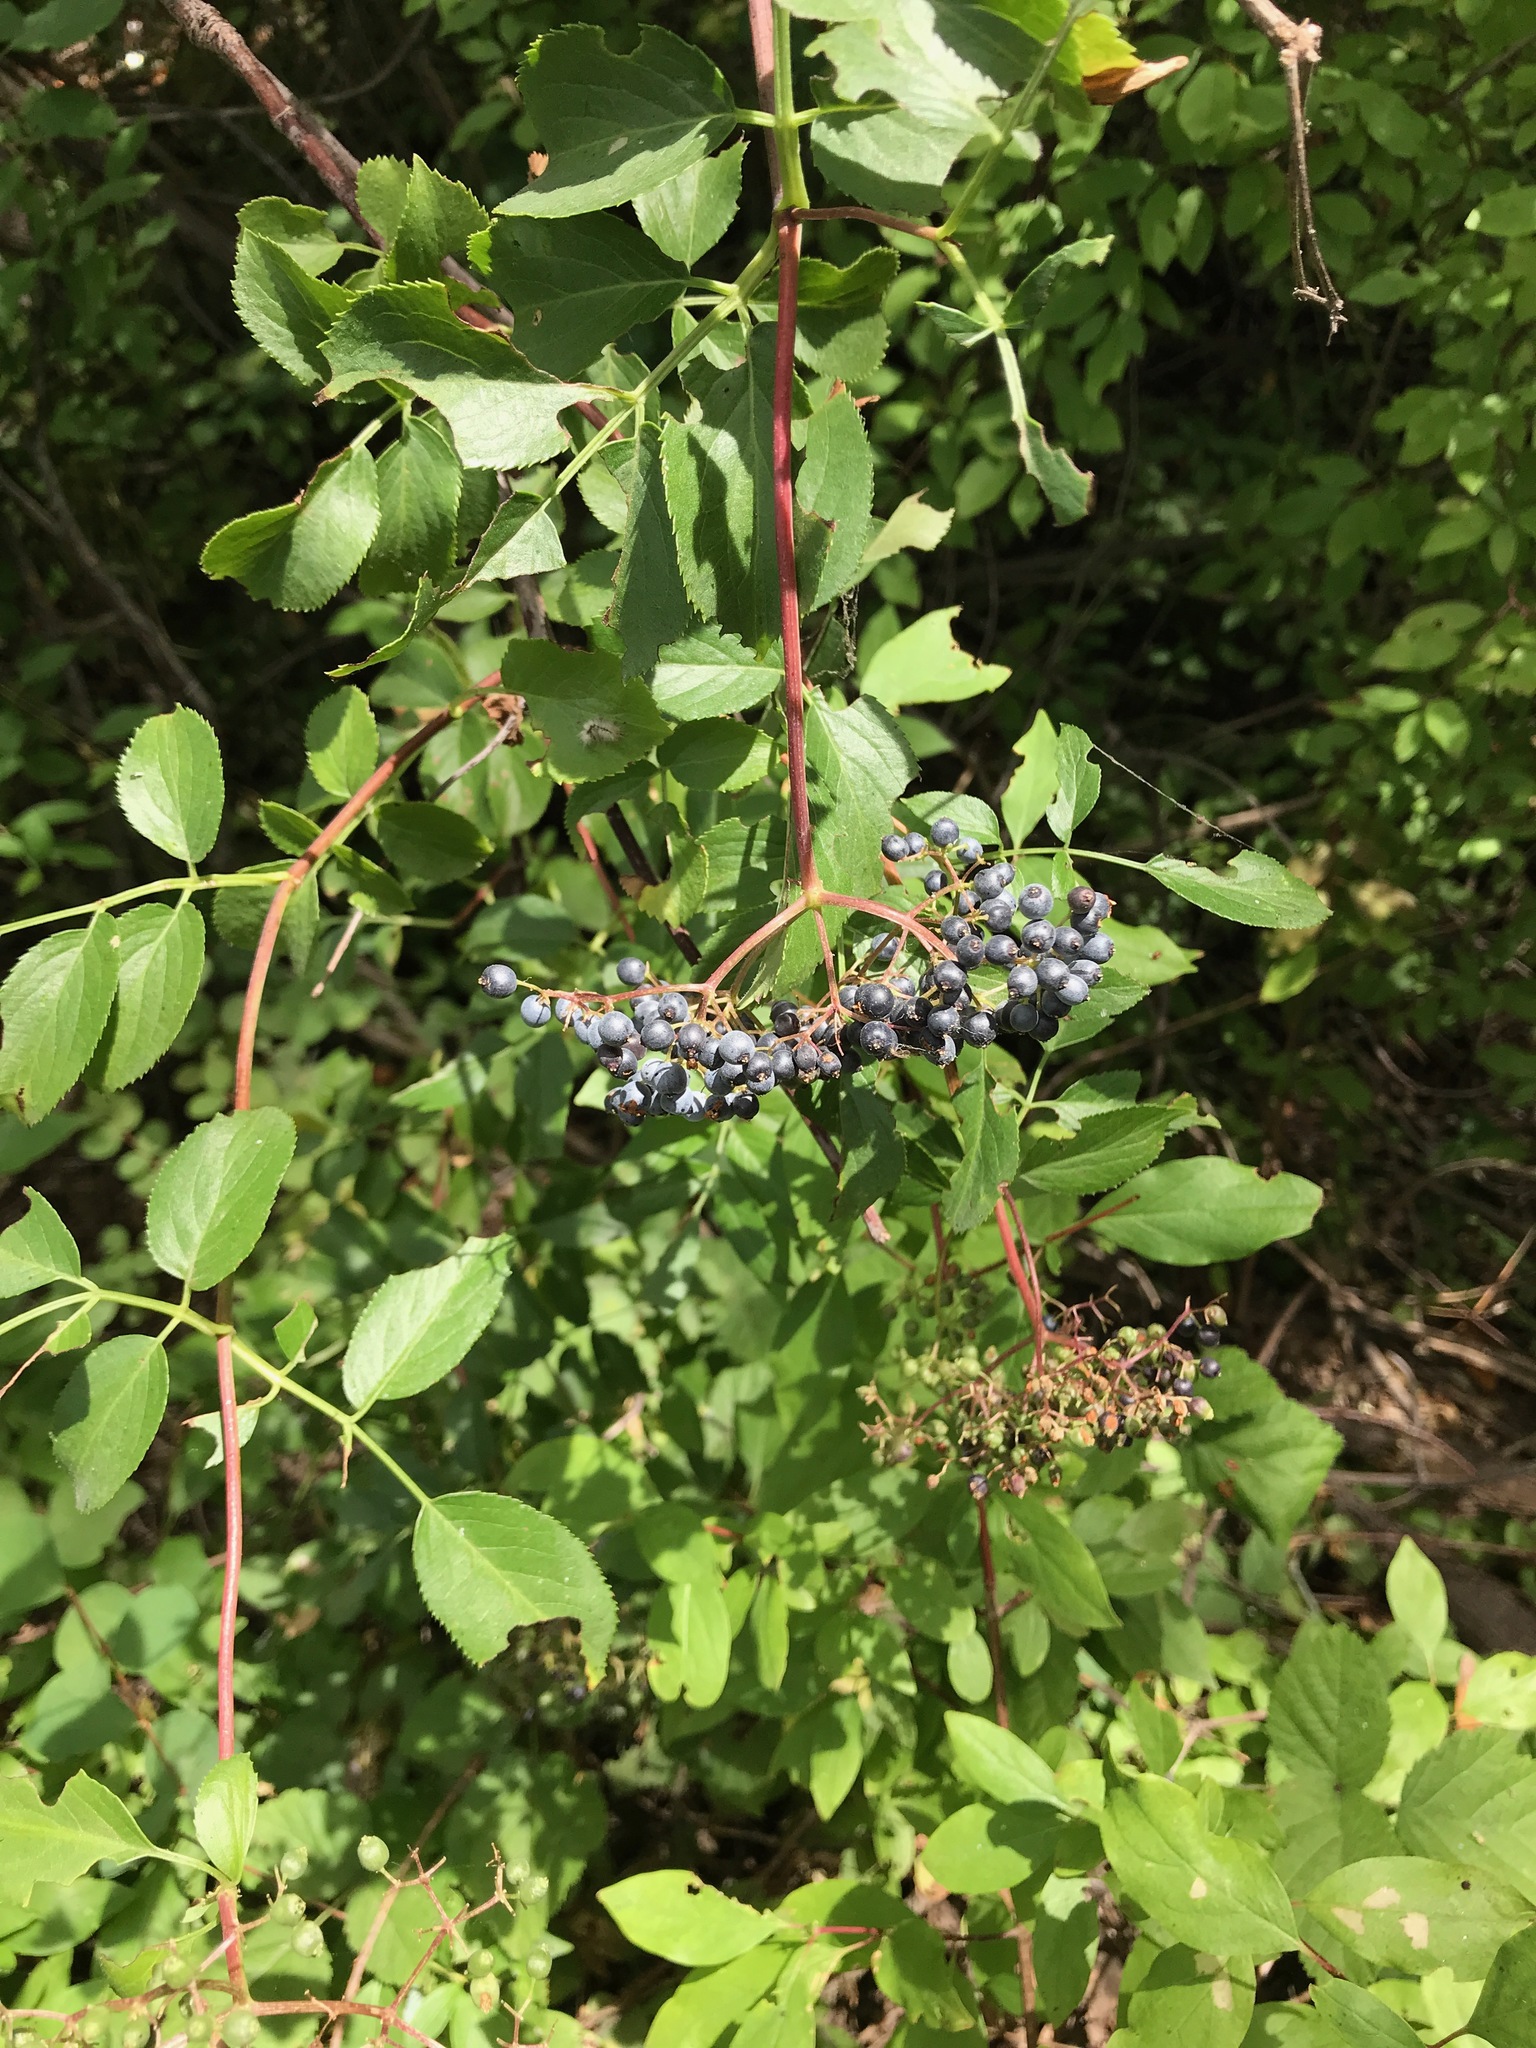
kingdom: Plantae
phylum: Tracheophyta
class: Magnoliopsida
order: Dipsacales
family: Viburnaceae
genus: Sambucus
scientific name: Sambucus cerulea
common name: Blue elder
